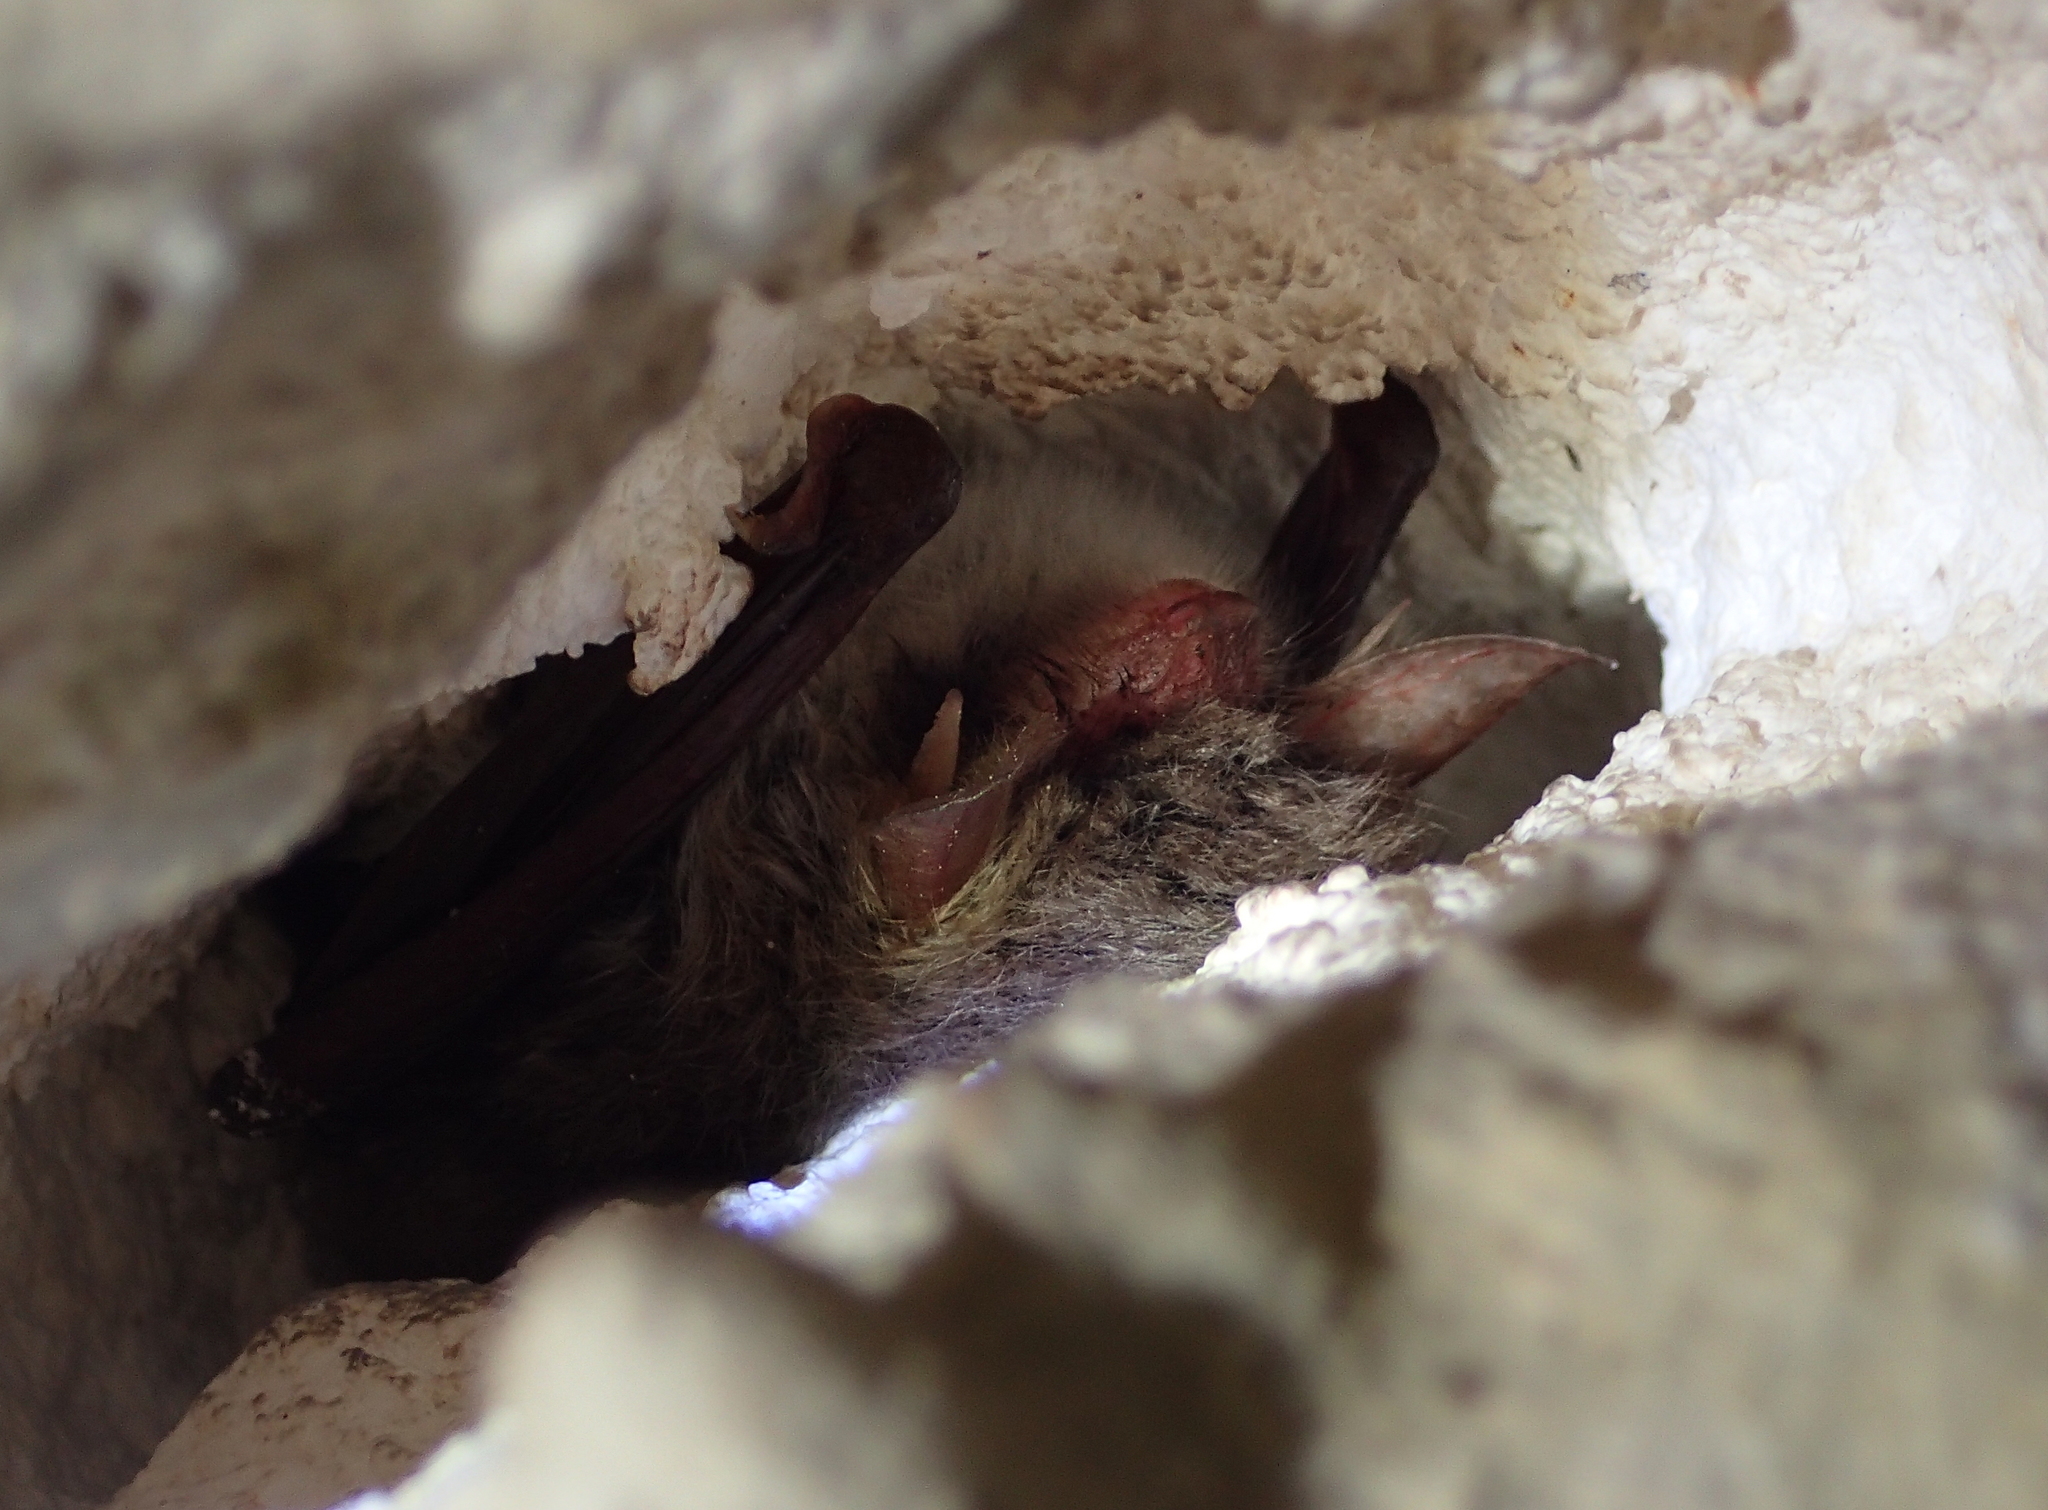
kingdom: Animalia
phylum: Chordata
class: Mammalia
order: Chiroptera
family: Vespertilionidae
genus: Myotis
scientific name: Myotis nattereri
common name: Natterer's bat
